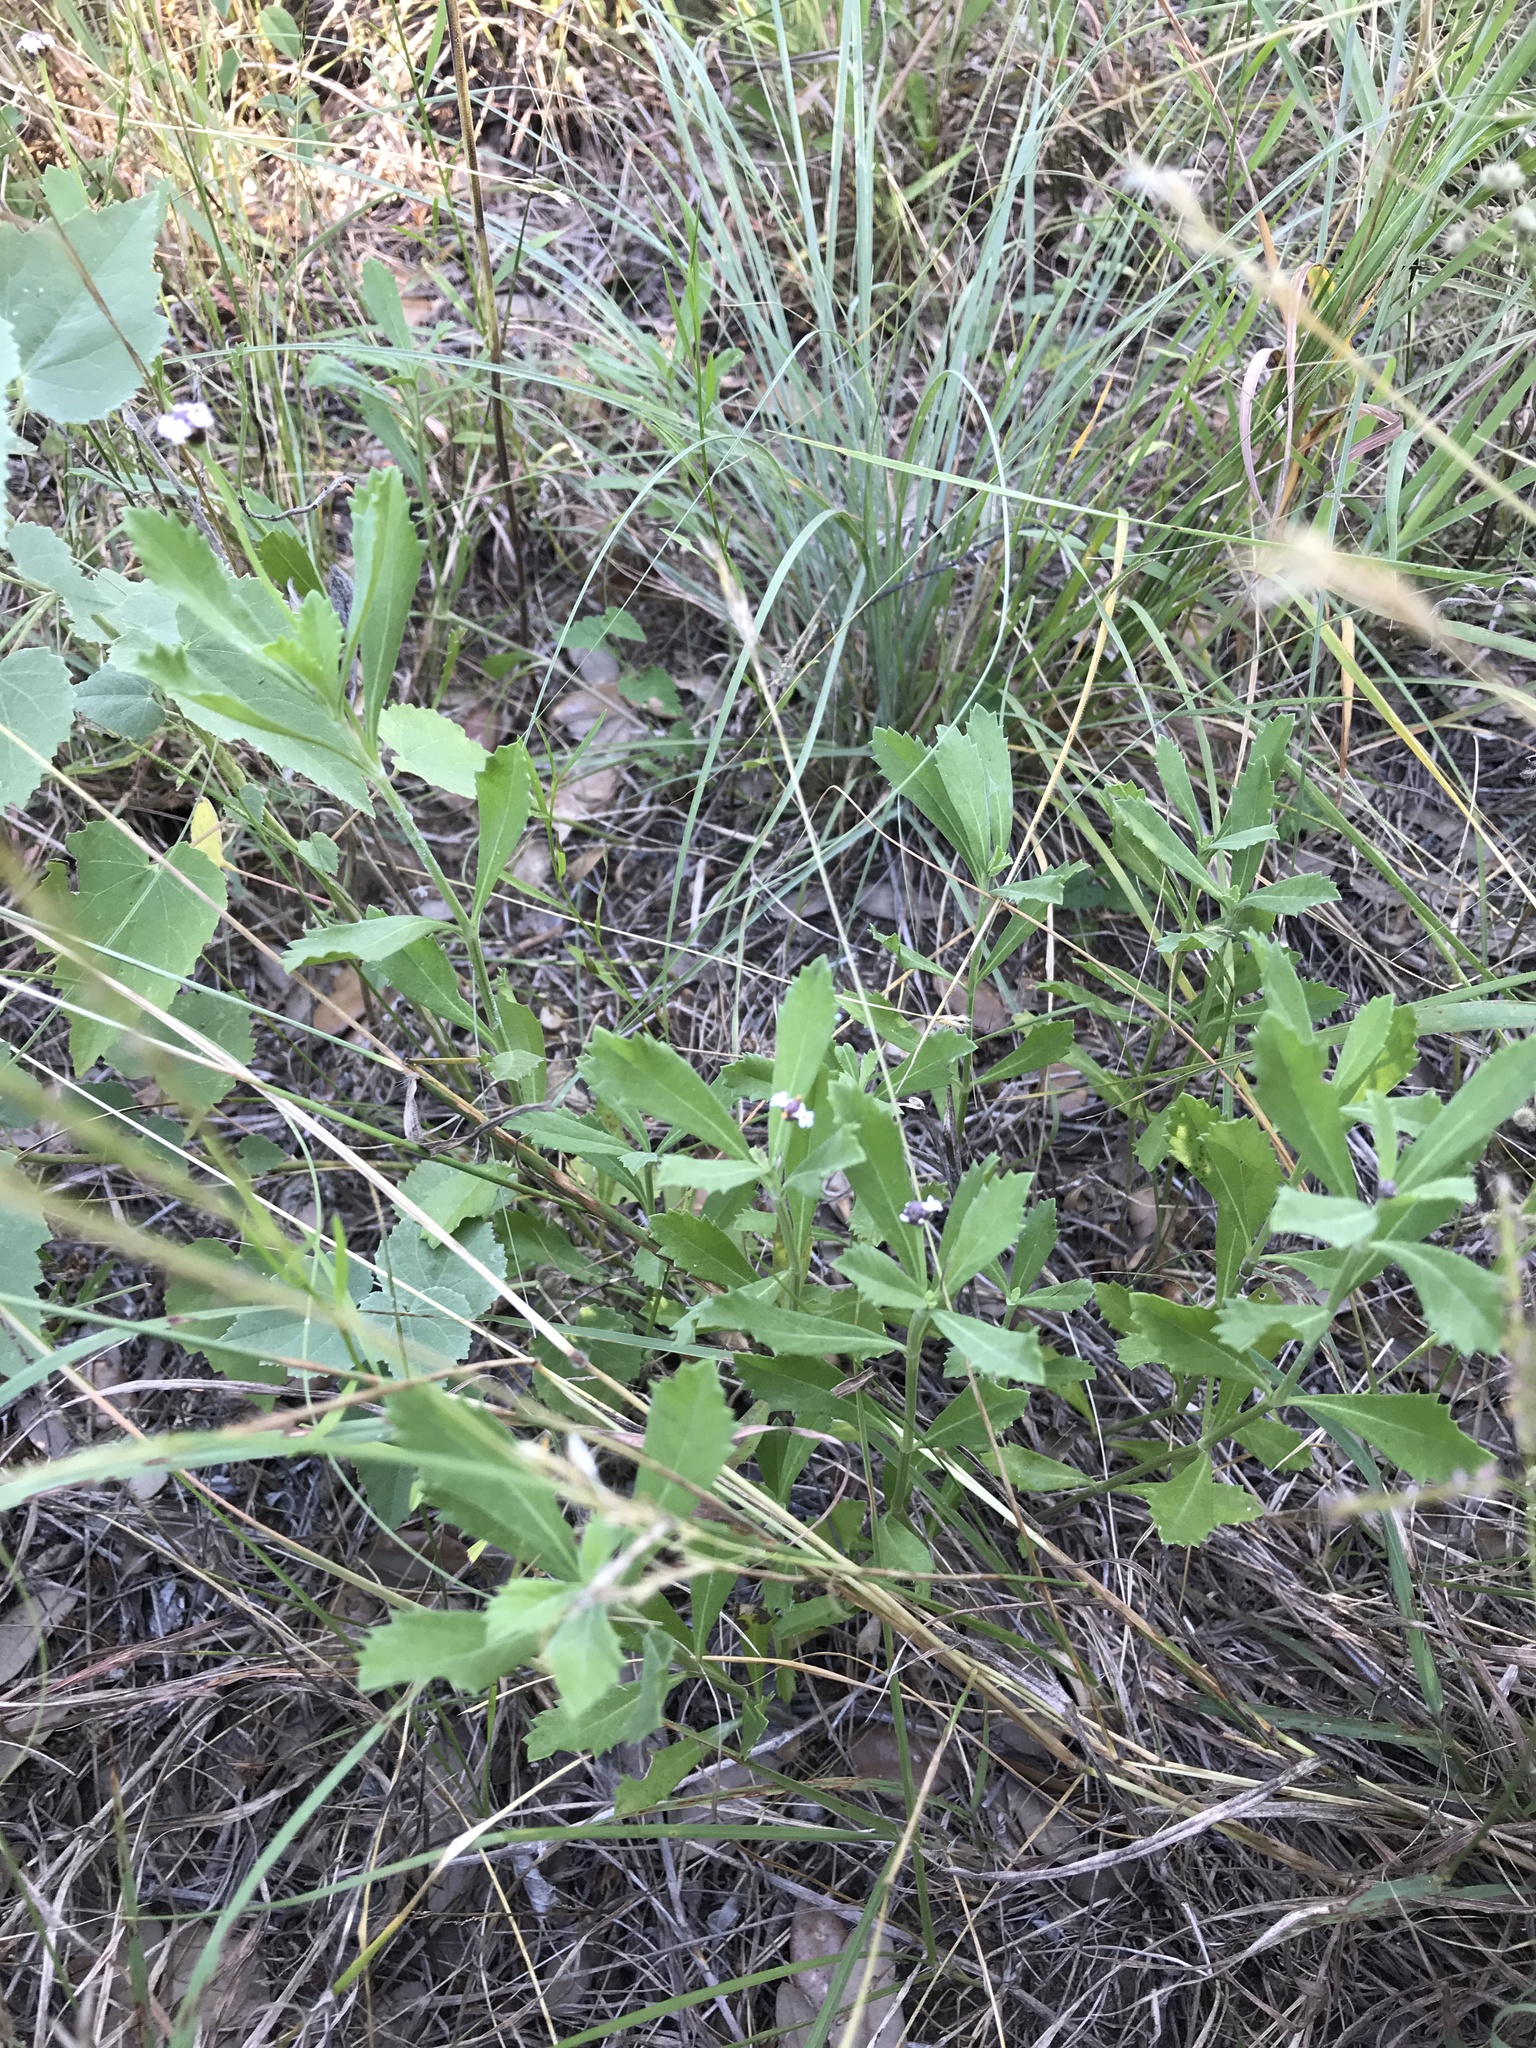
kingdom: Plantae
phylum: Tracheophyta
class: Magnoliopsida
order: Lamiales
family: Verbenaceae
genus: Phyla
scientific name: Phyla nodiflora
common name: Frogfruit
